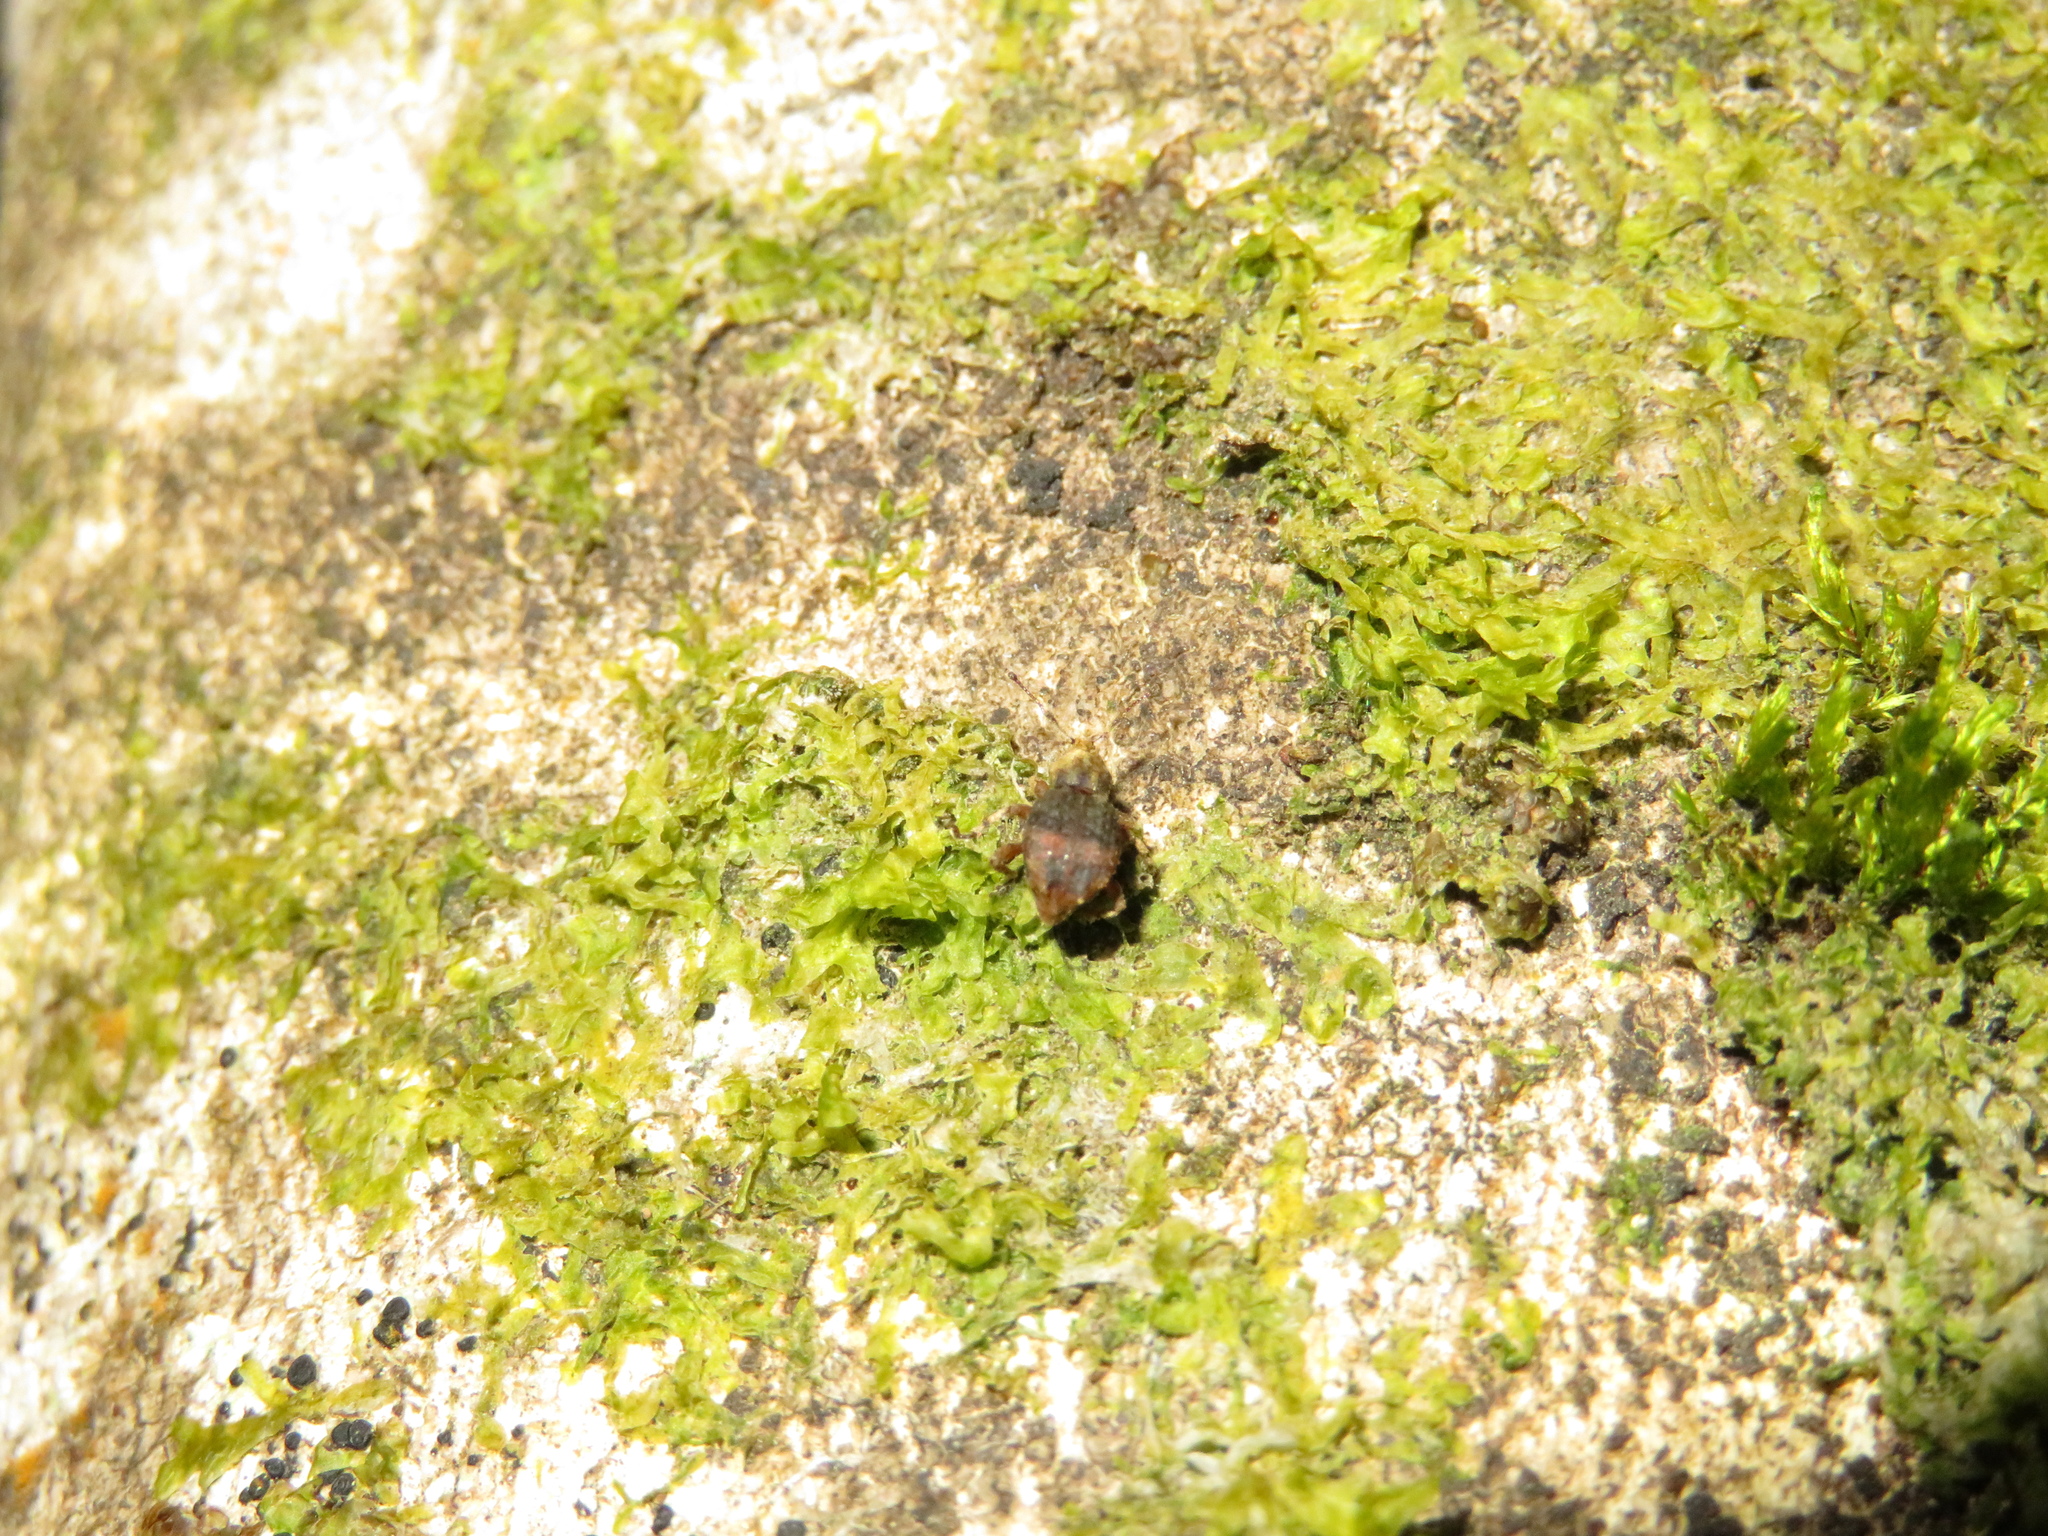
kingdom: Animalia
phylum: Arthropoda
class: Insecta
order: Coleoptera
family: Curculionidae
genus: Brachyolus
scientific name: Brachyolus punctatus
